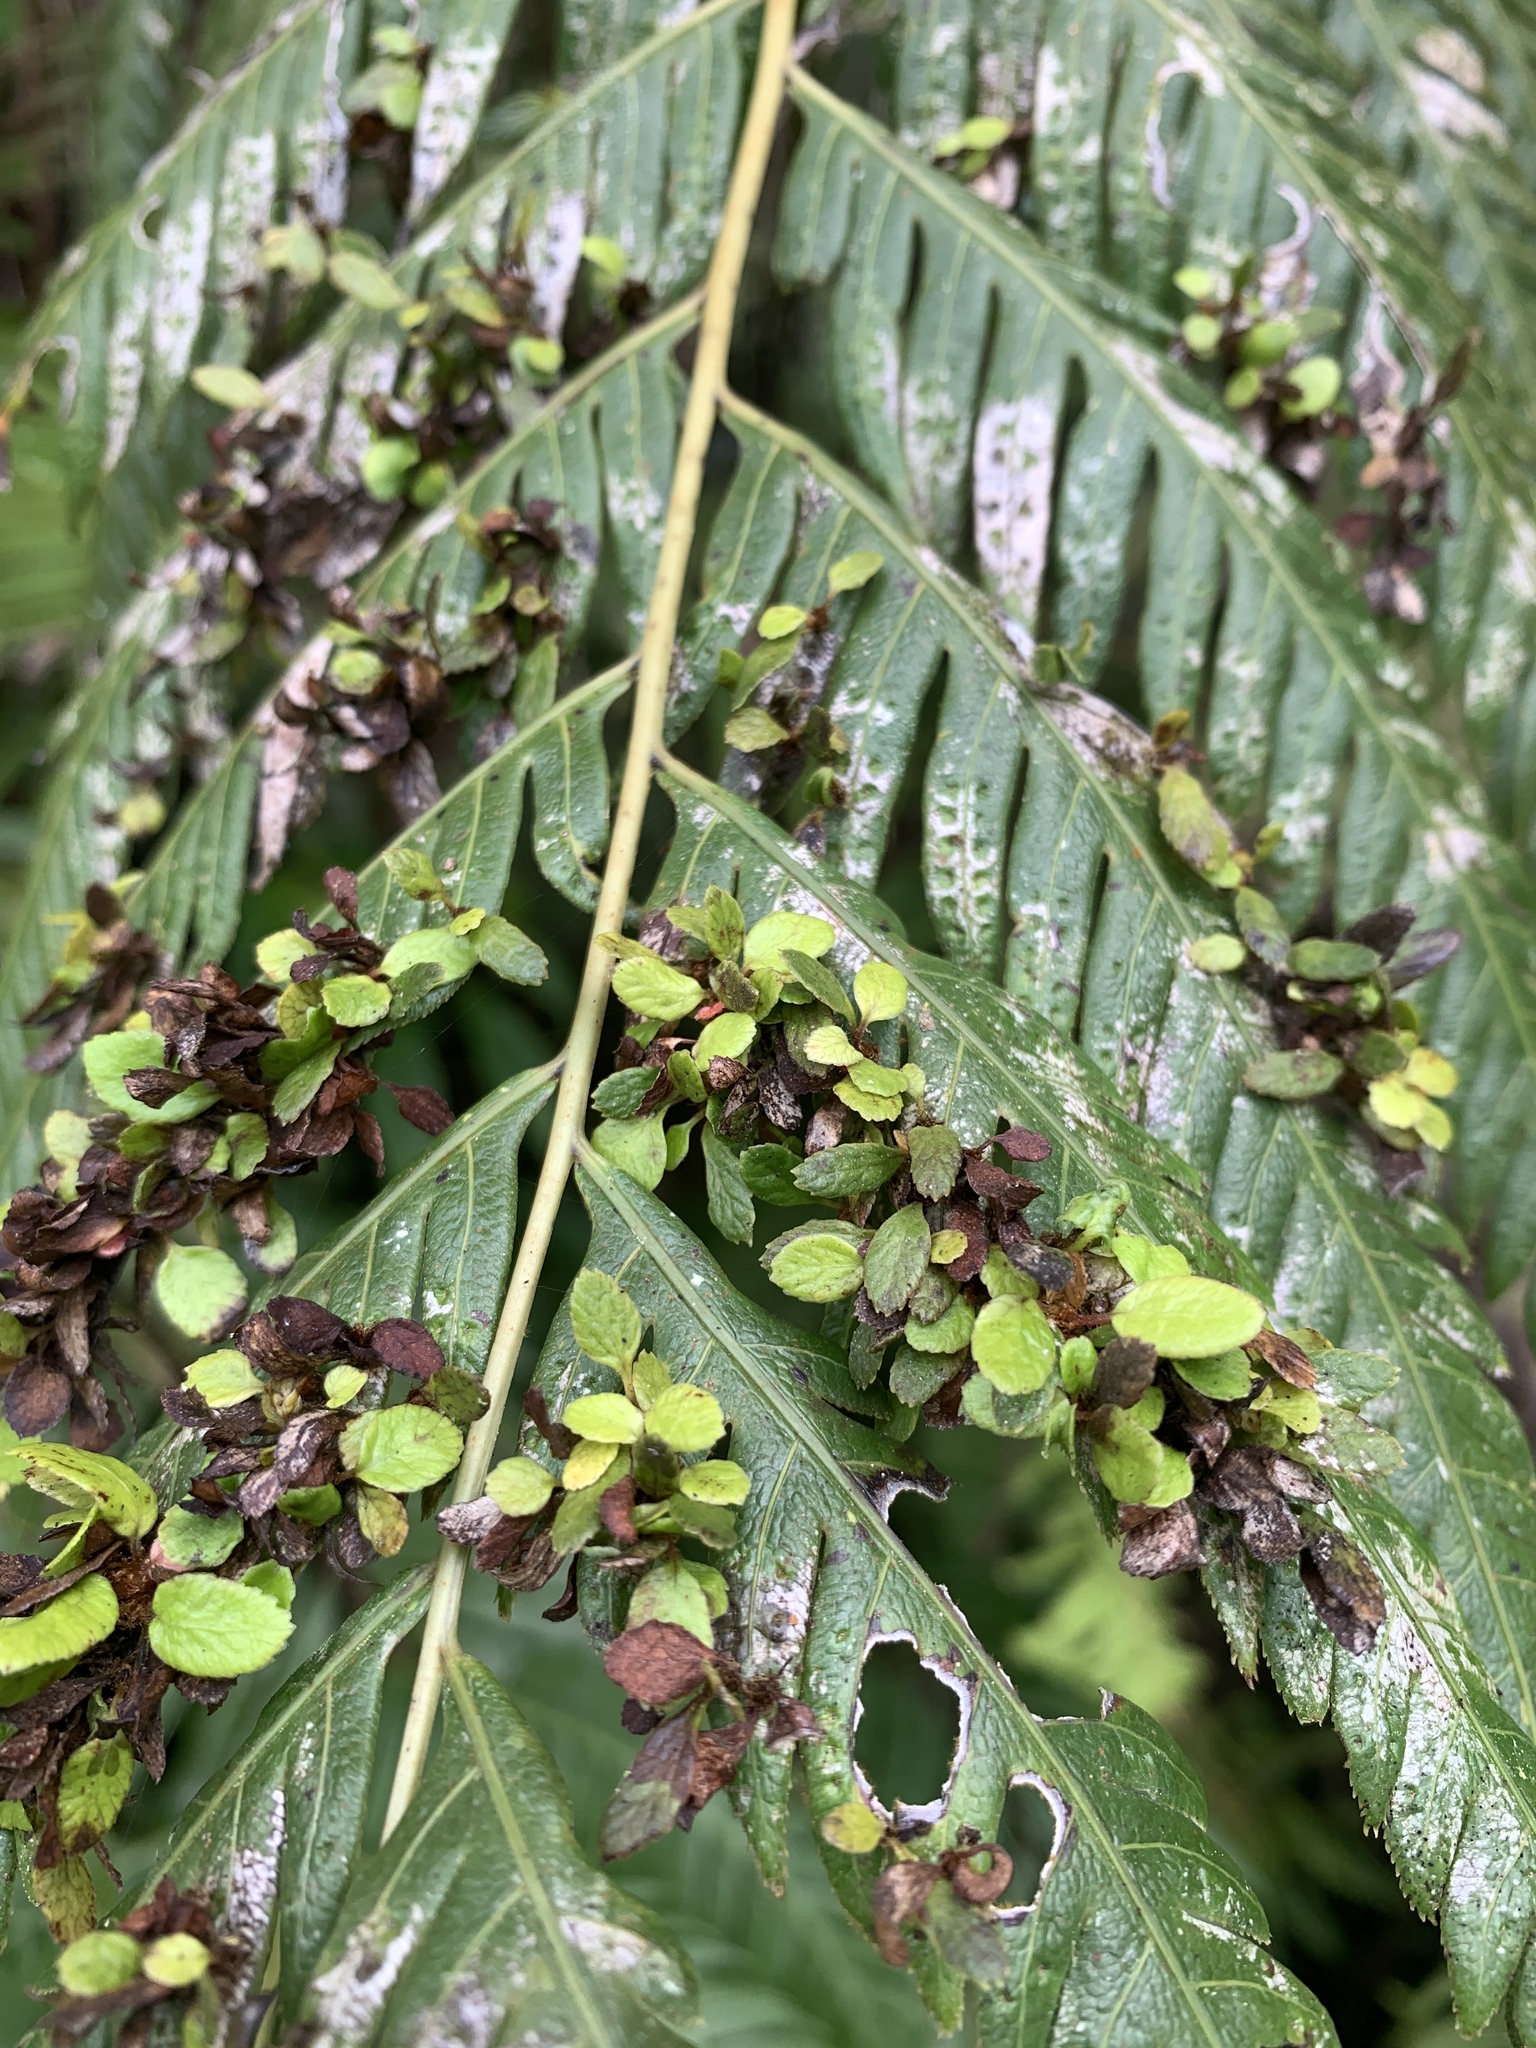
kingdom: Plantae
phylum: Tracheophyta
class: Polypodiopsida
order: Polypodiales
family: Blechnaceae
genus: Woodwardia
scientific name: Woodwardia prolifera
